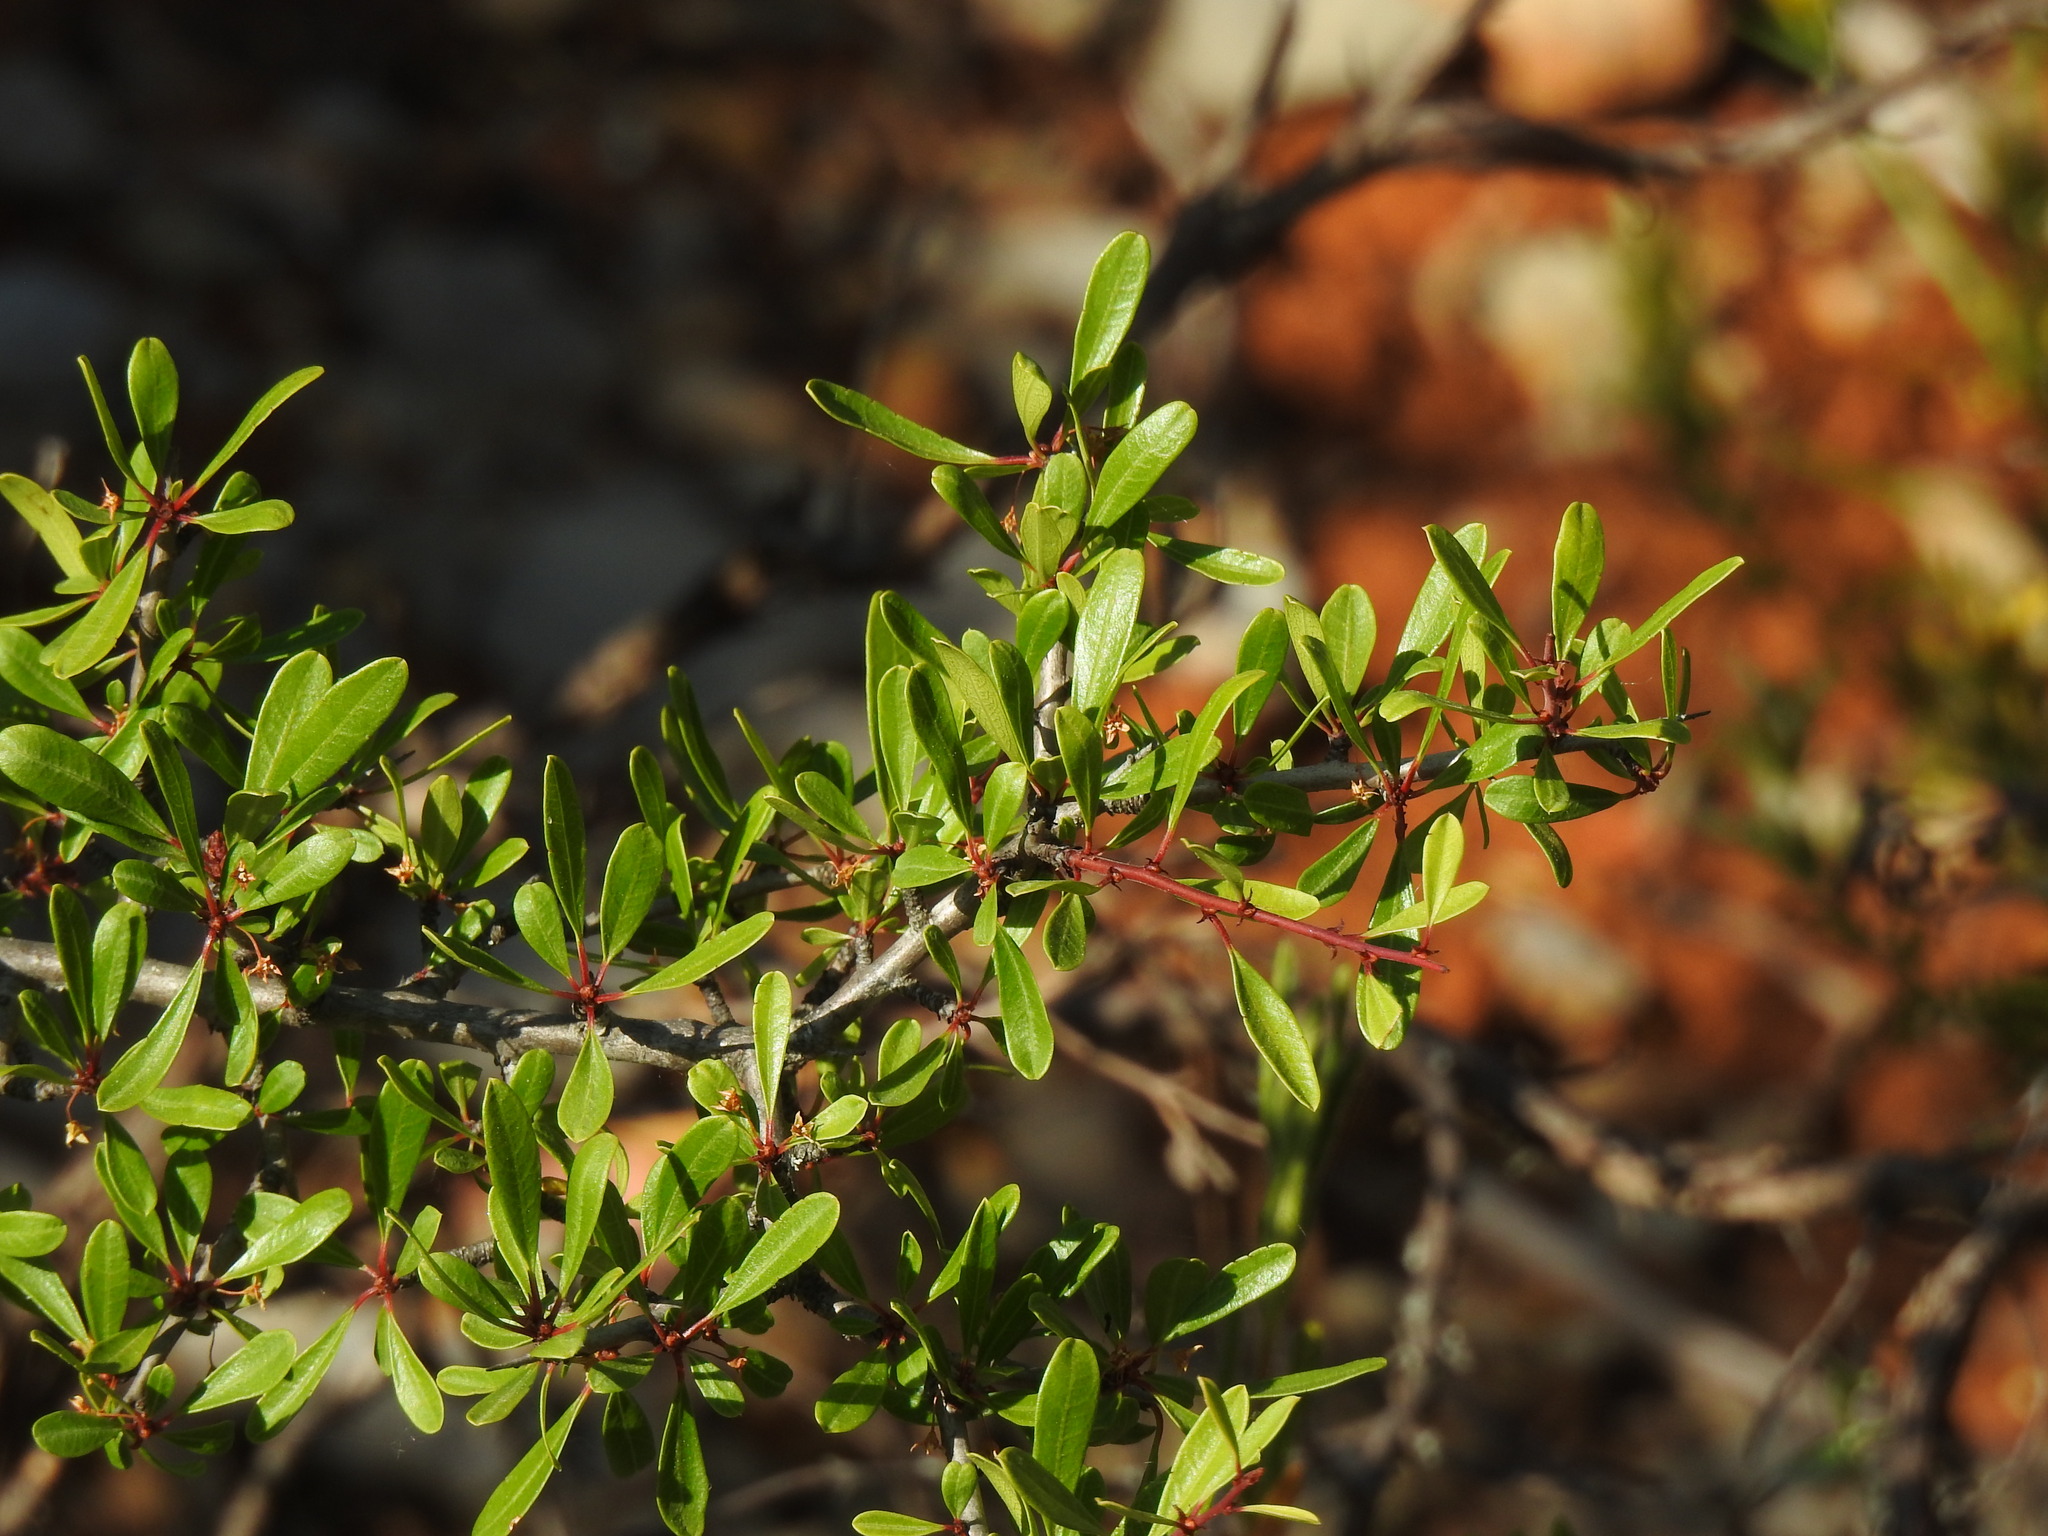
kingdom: Plantae
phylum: Tracheophyta
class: Magnoliopsida
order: Rosales
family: Rhamnaceae
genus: Rhamnus
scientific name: Rhamnus oleoides
